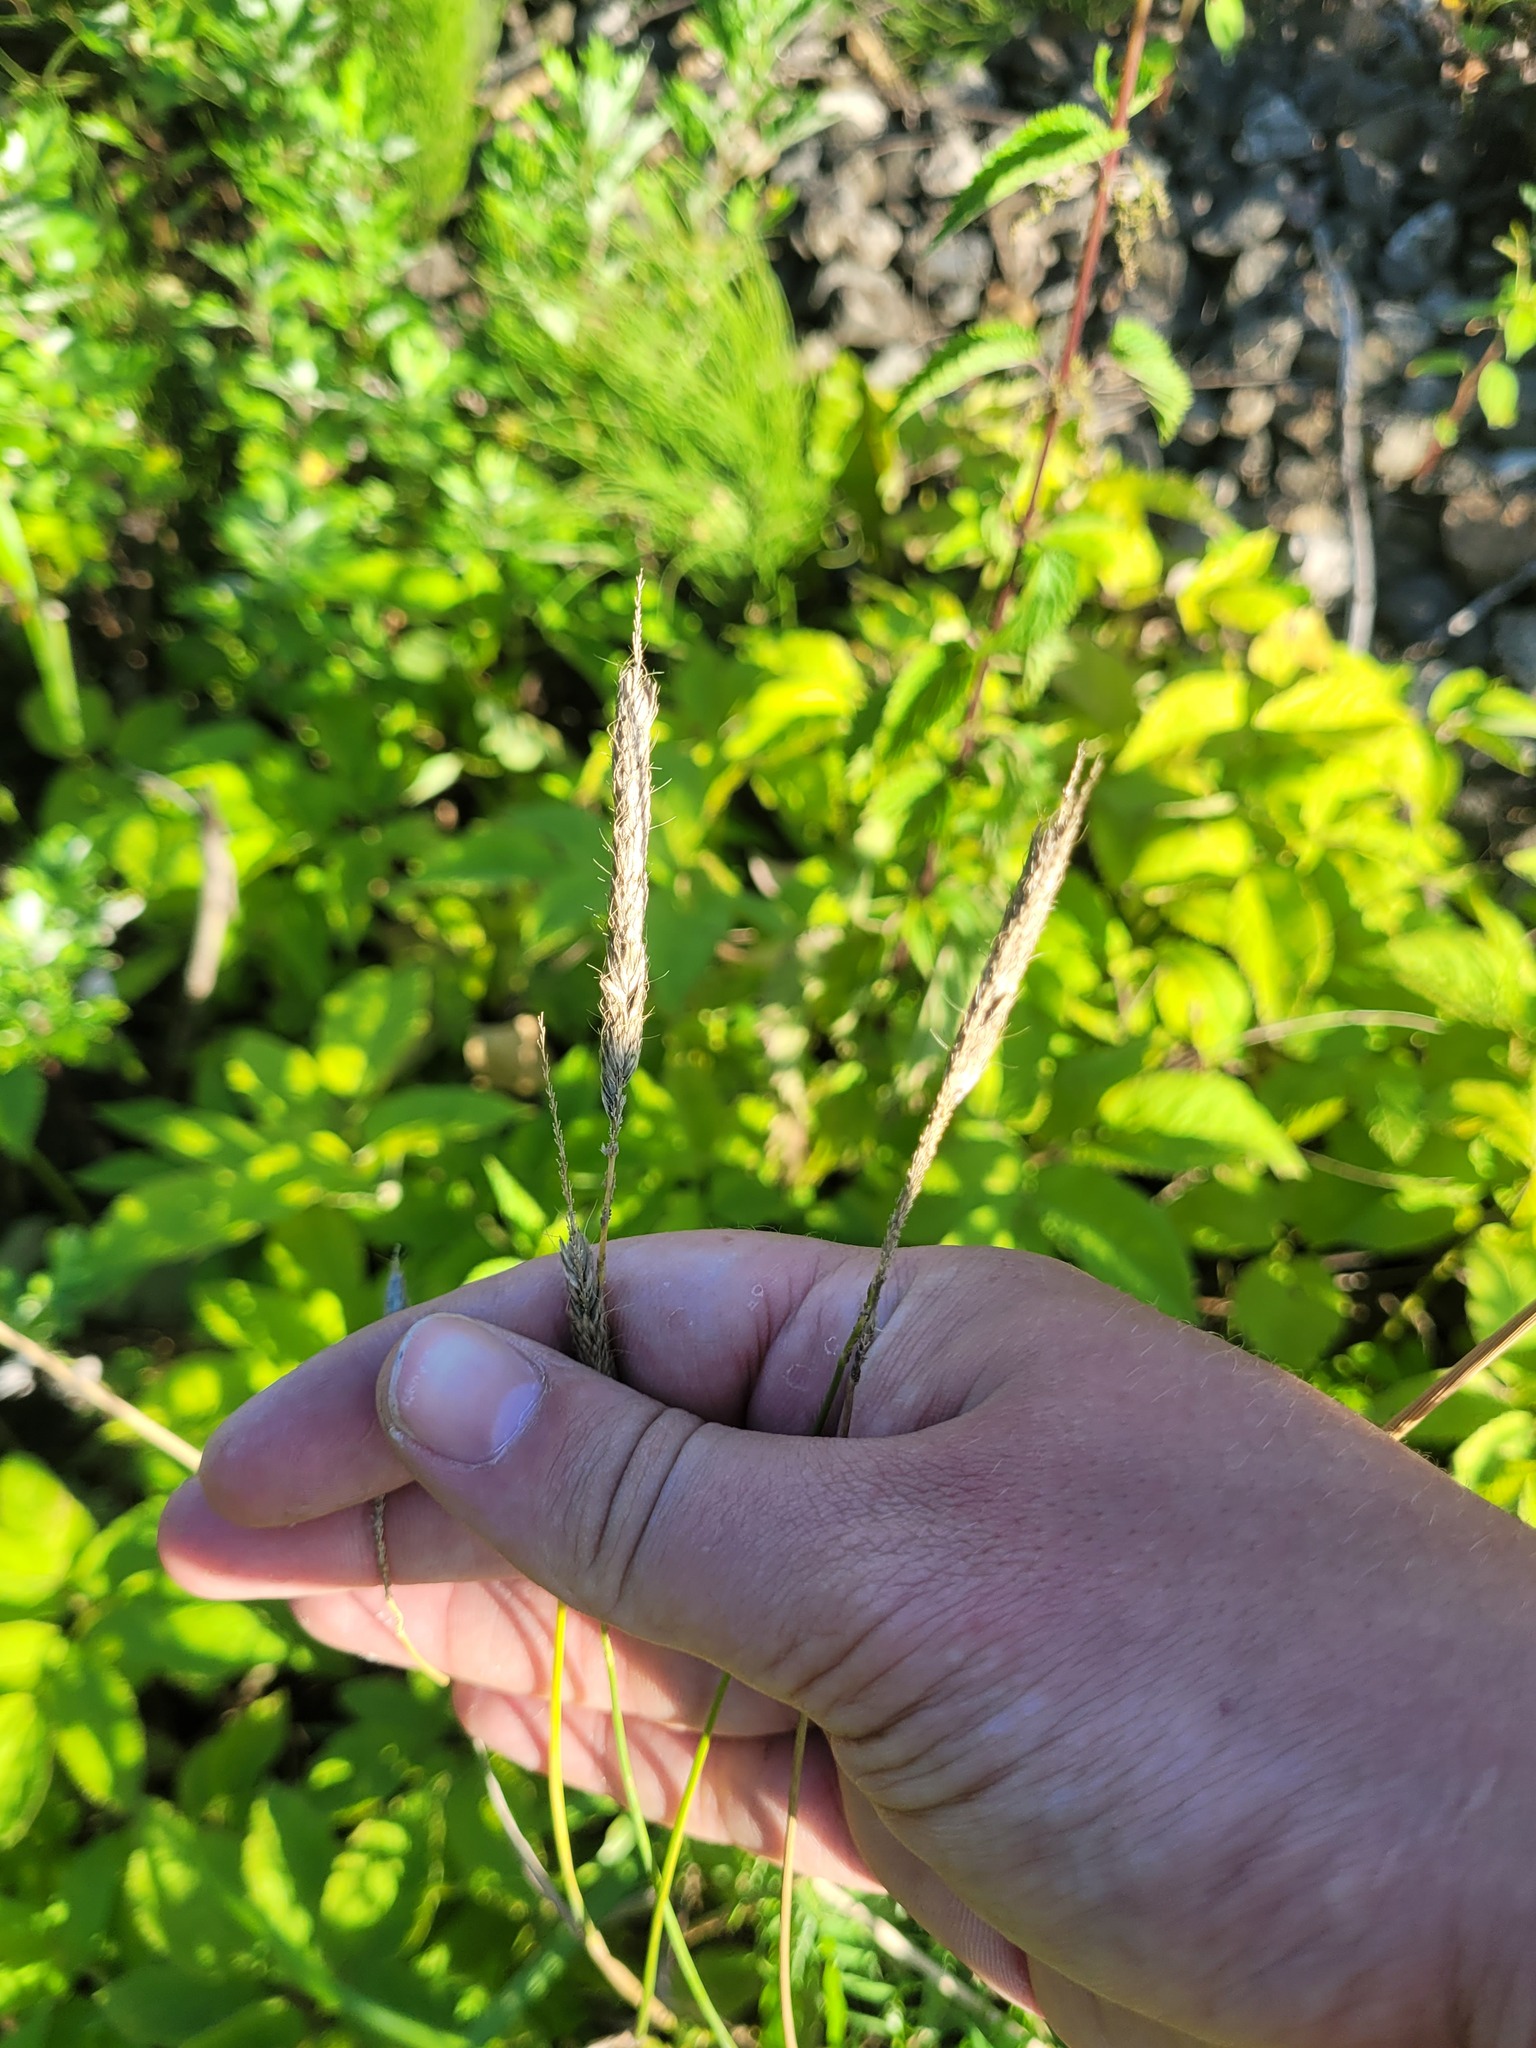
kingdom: Plantae
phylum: Tracheophyta
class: Liliopsida
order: Poales
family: Poaceae
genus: Alopecurus
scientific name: Alopecurus pratensis
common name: Meadow foxtail
